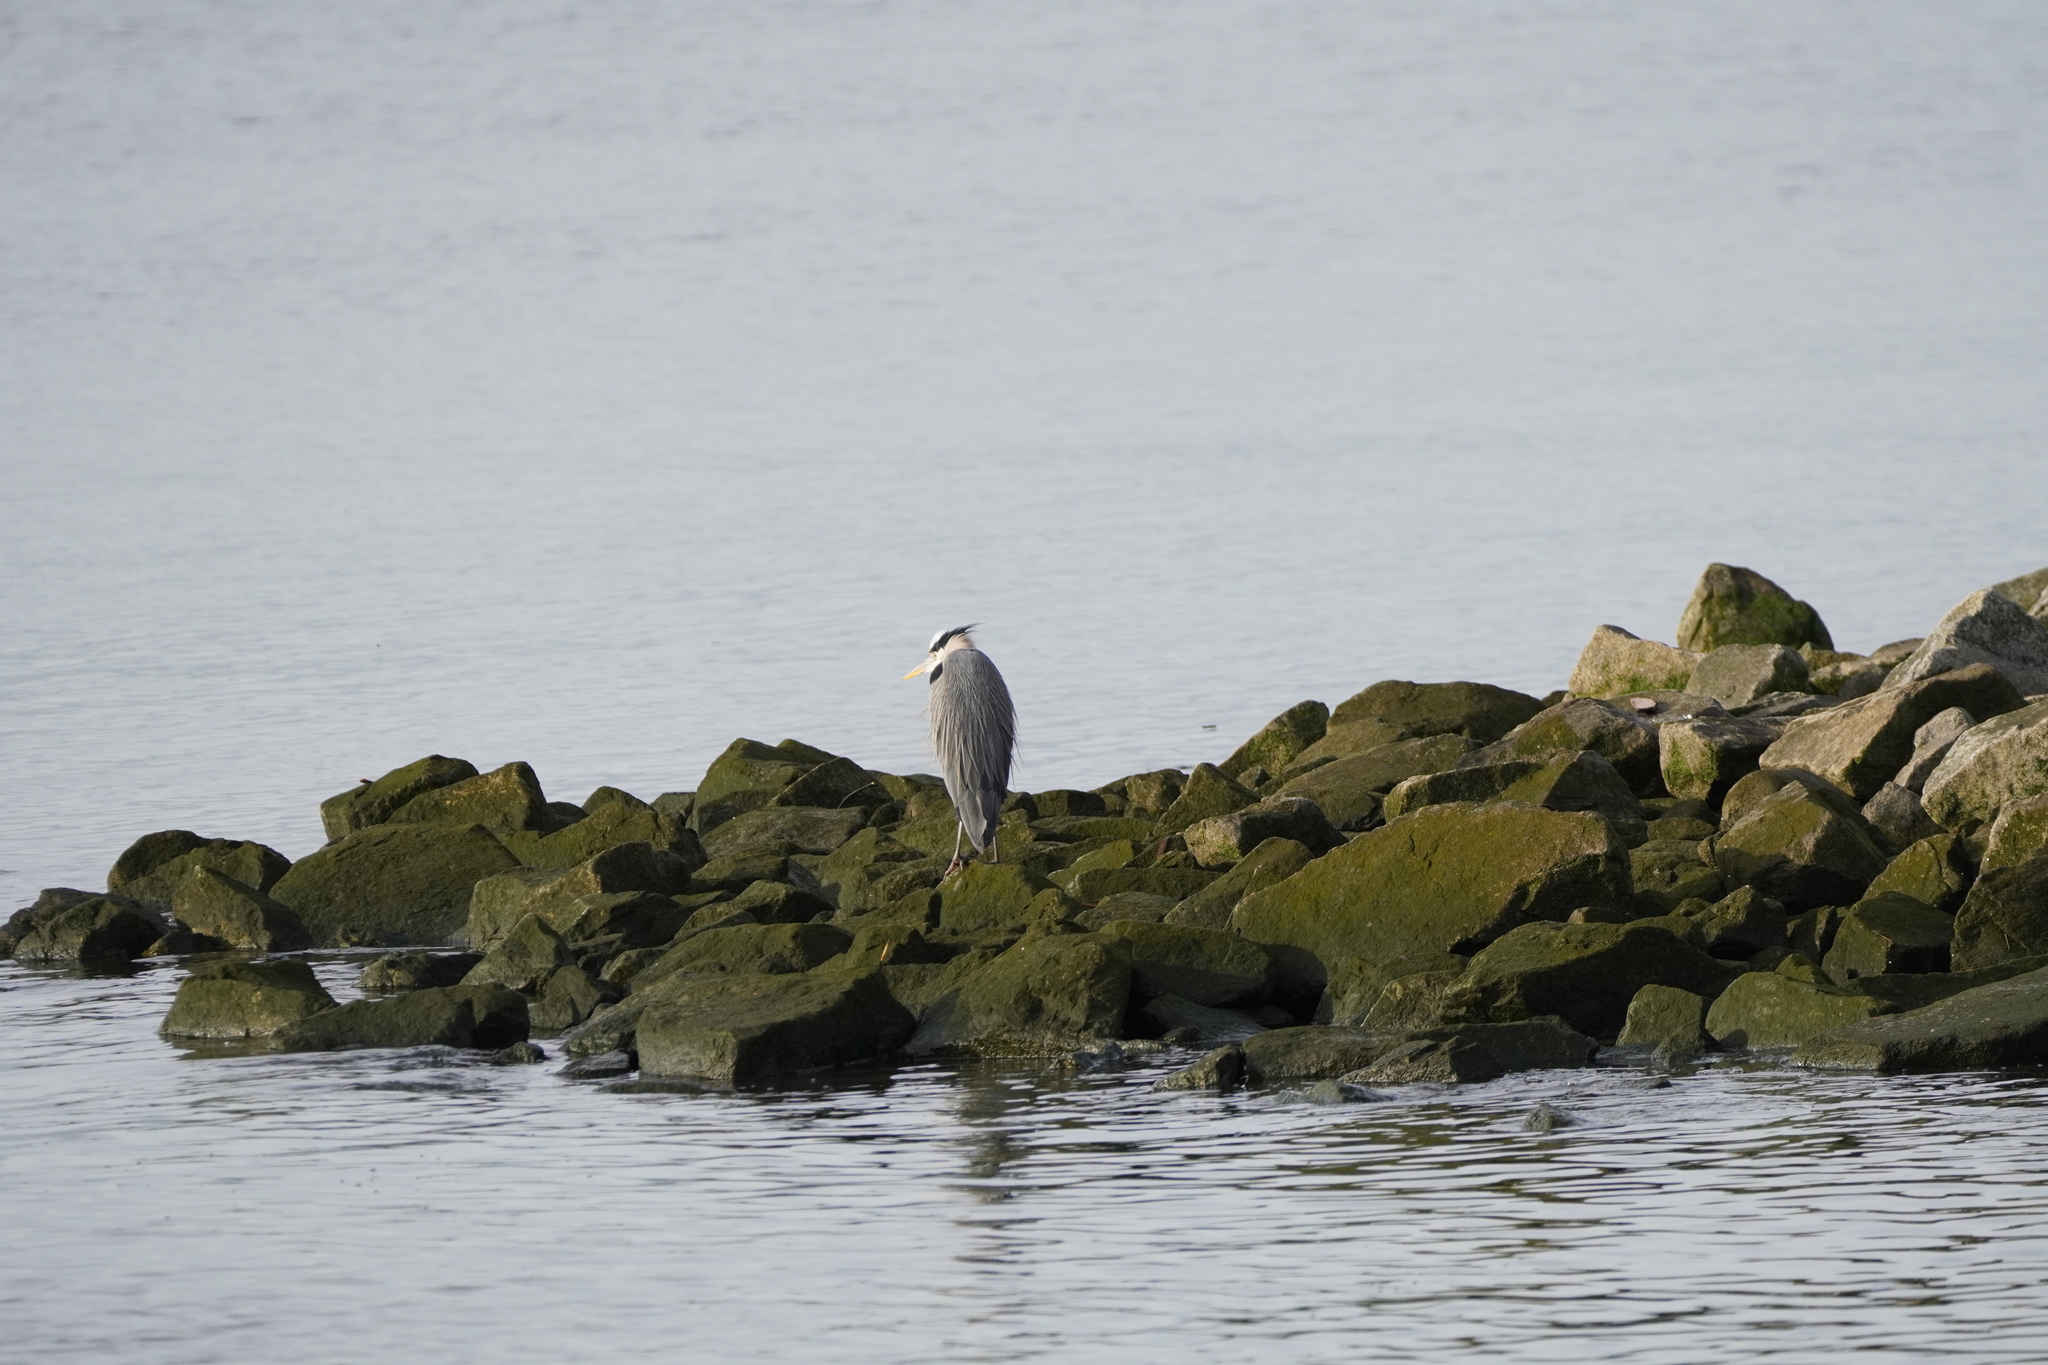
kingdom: Animalia
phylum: Chordata
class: Aves
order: Pelecaniformes
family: Ardeidae
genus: Ardea
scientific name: Ardea herodias
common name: Great blue heron
